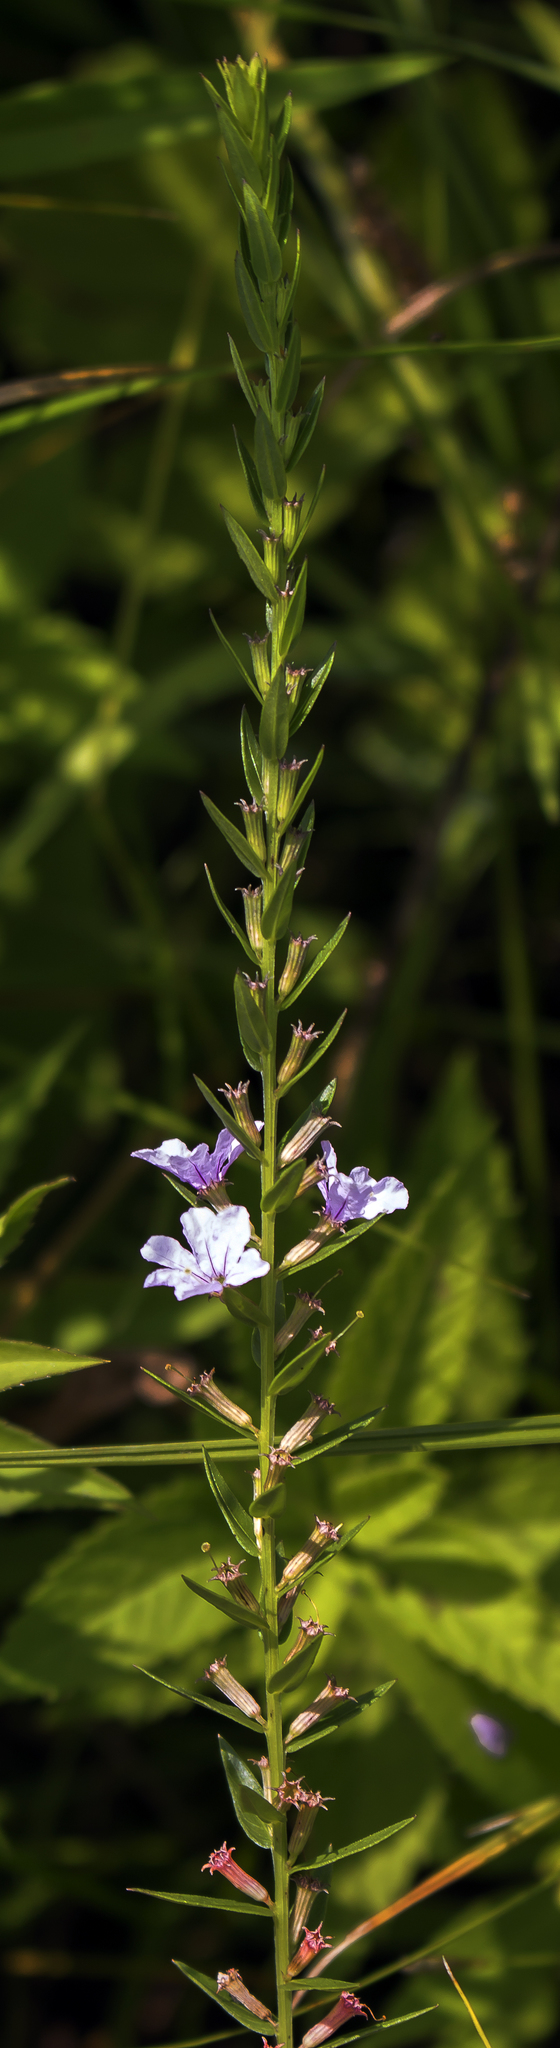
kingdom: Plantae
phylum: Tracheophyta
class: Magnoliopsida
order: Myrtales
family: Lythraceae
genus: Lythrum
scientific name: Lythrum alatum
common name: Winged loosestrife
